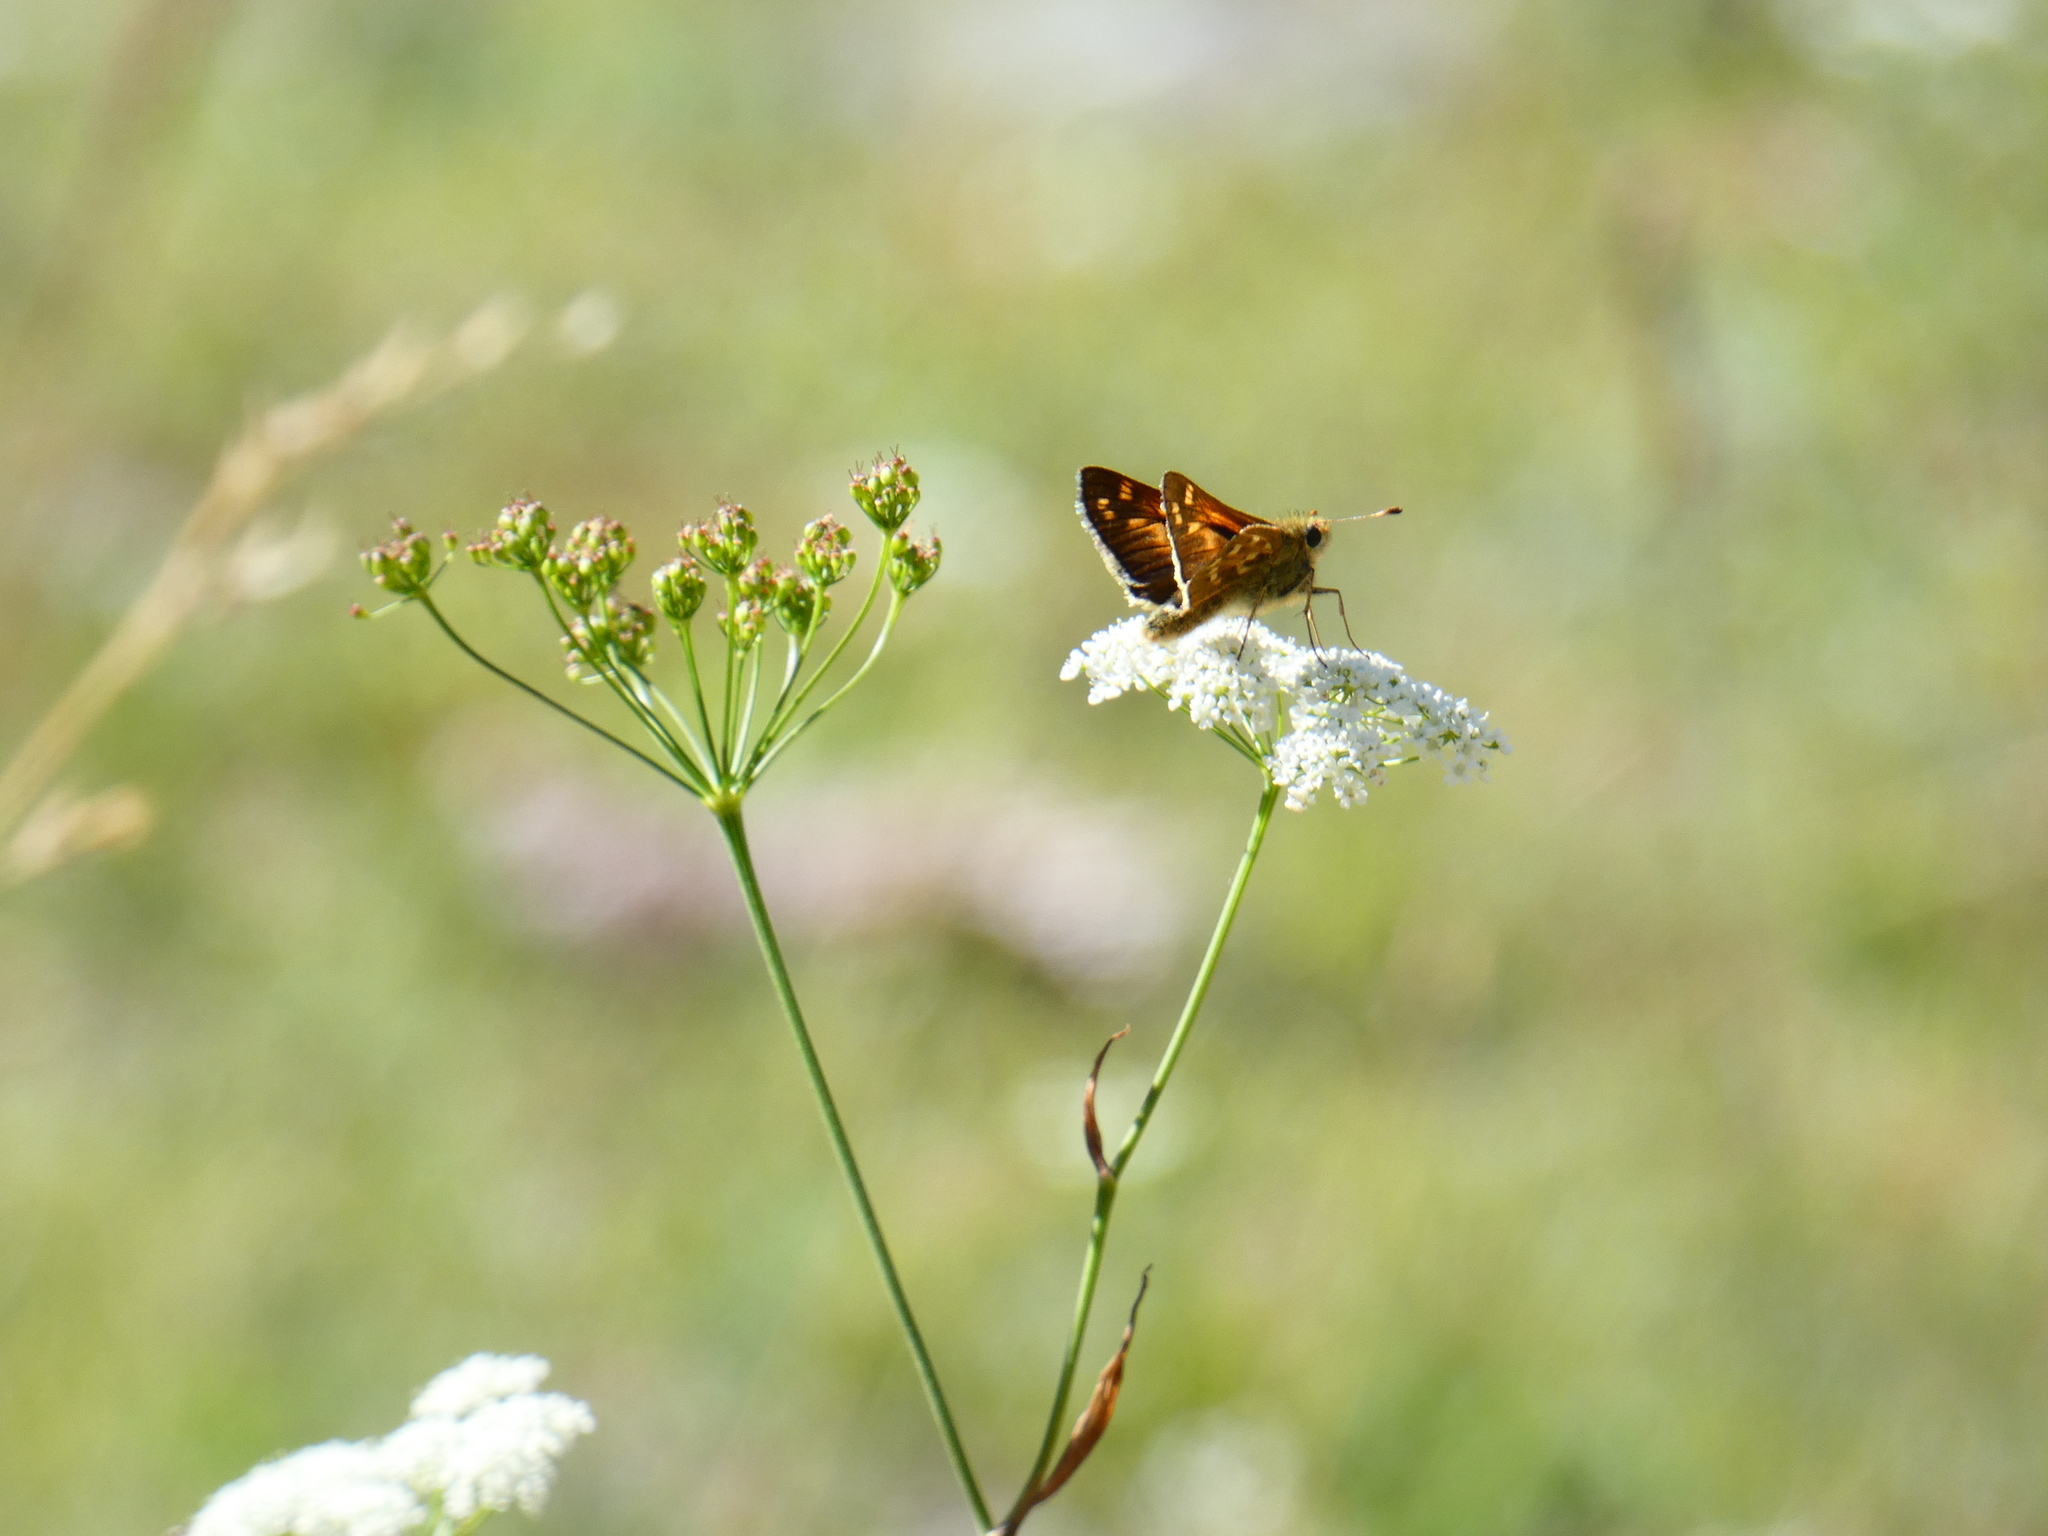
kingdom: Animalia
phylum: Arthropoda
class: Insecta
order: Lepidoptera
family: Hesperiidae
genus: Hesperia
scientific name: Hesperia comma
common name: Common branded skipper
